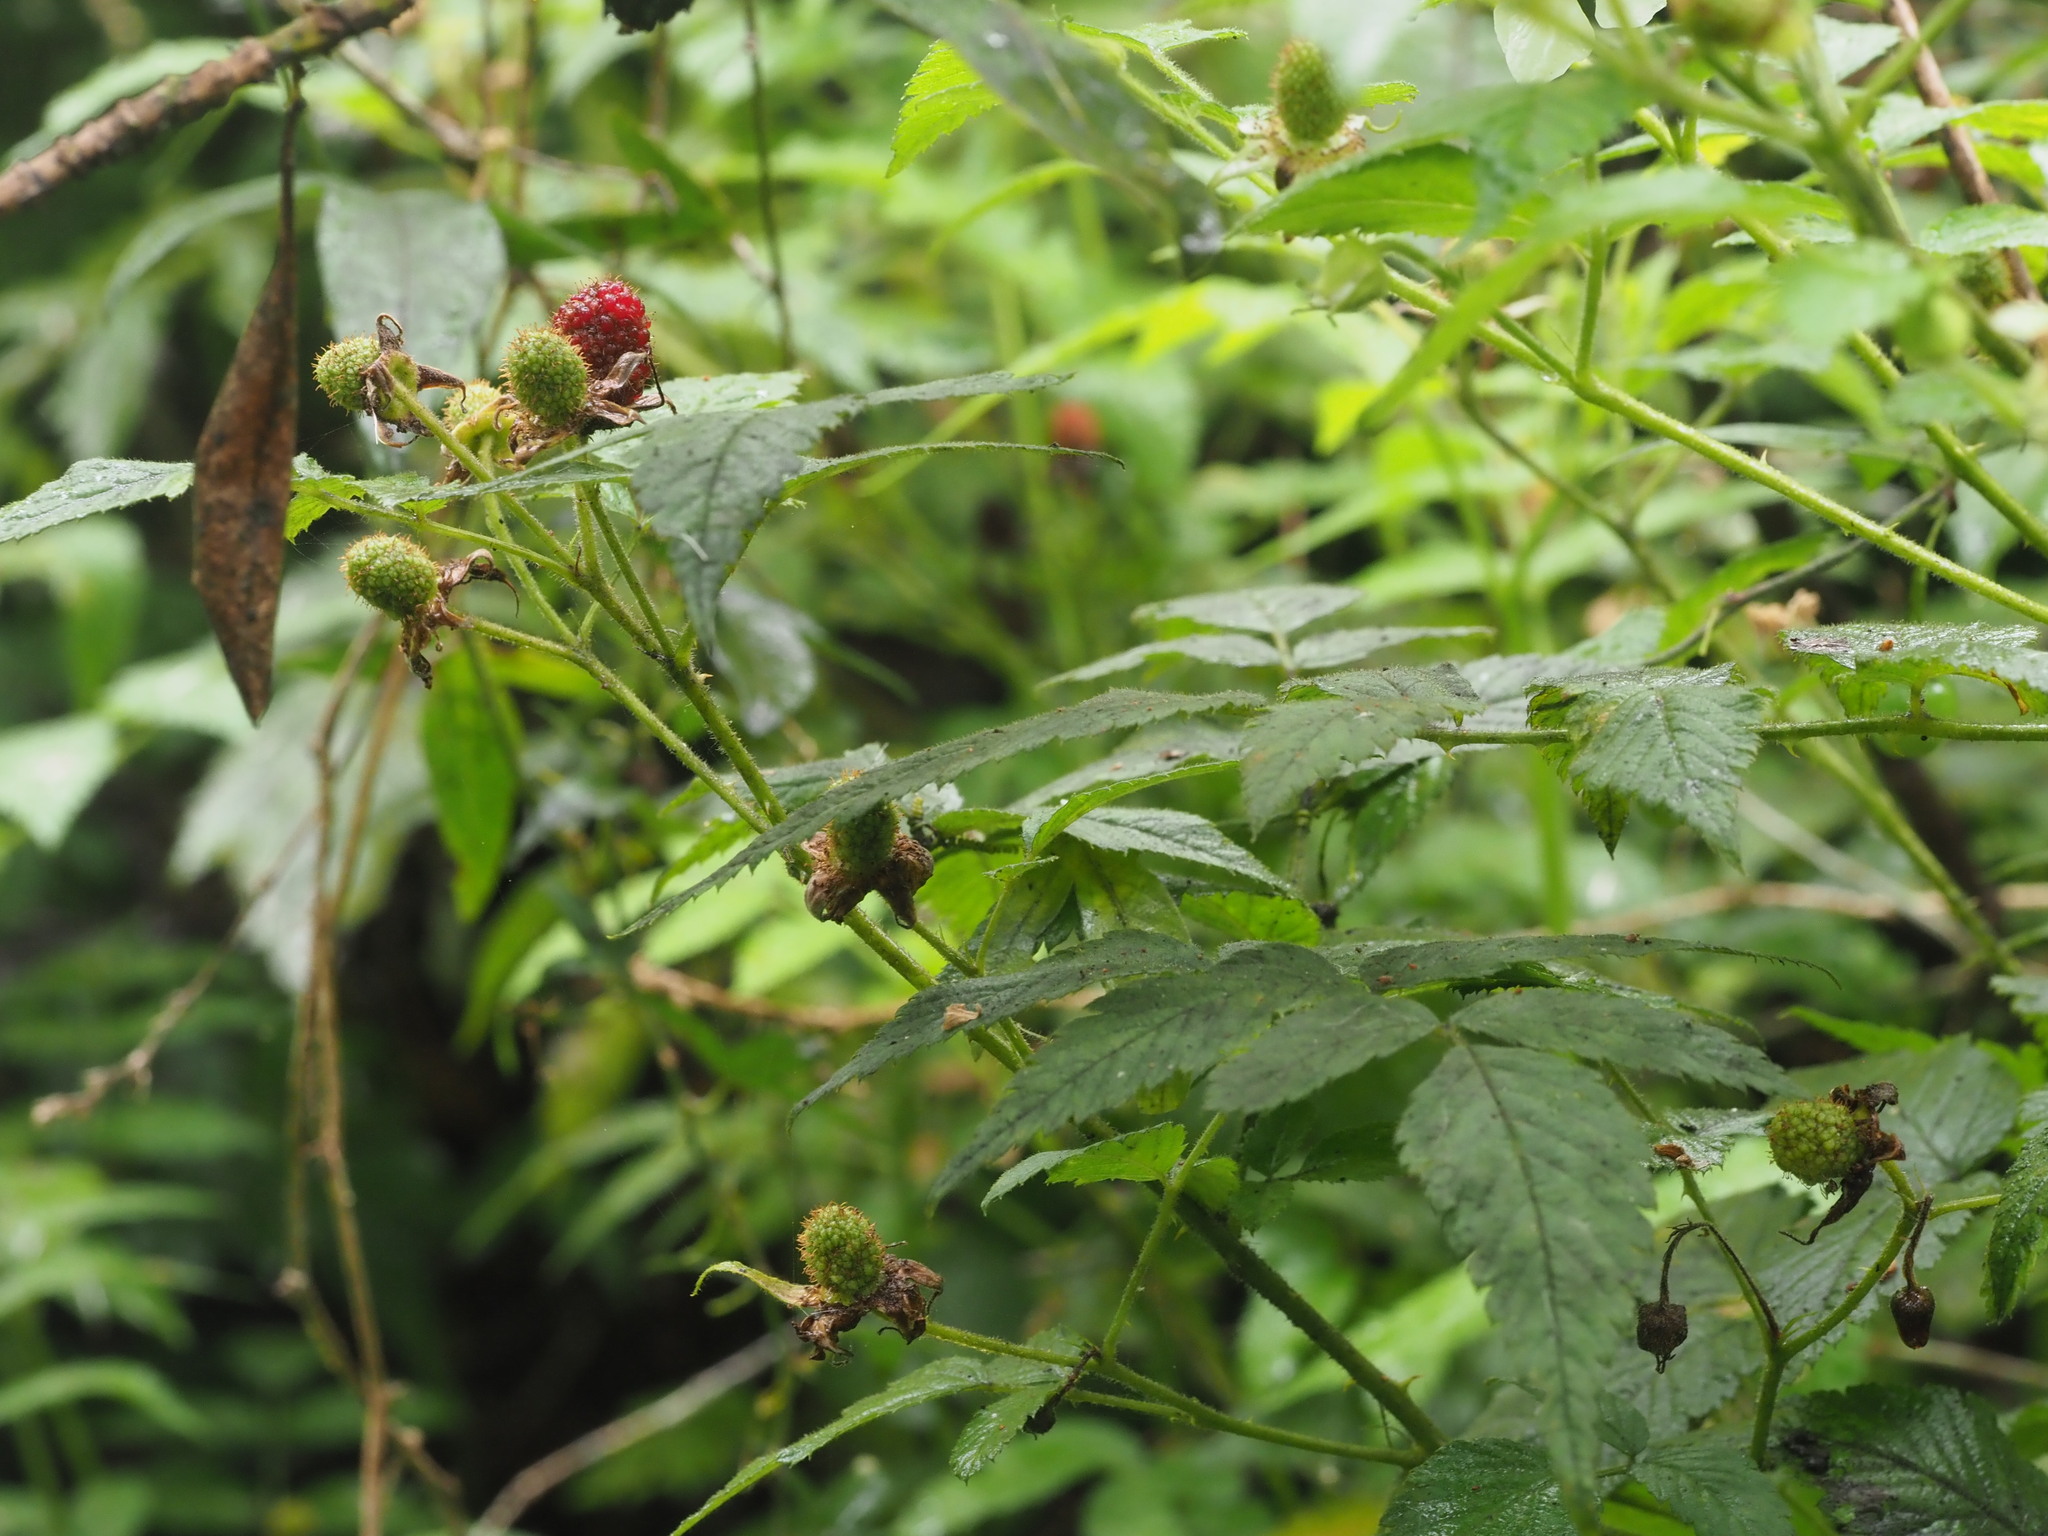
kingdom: Plantae
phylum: Tracheophyta
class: Magnoliopsida
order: Rosales
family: Rosaceae
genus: Rubus
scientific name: Rubus rosifolius
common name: Roseleaf raspberry
